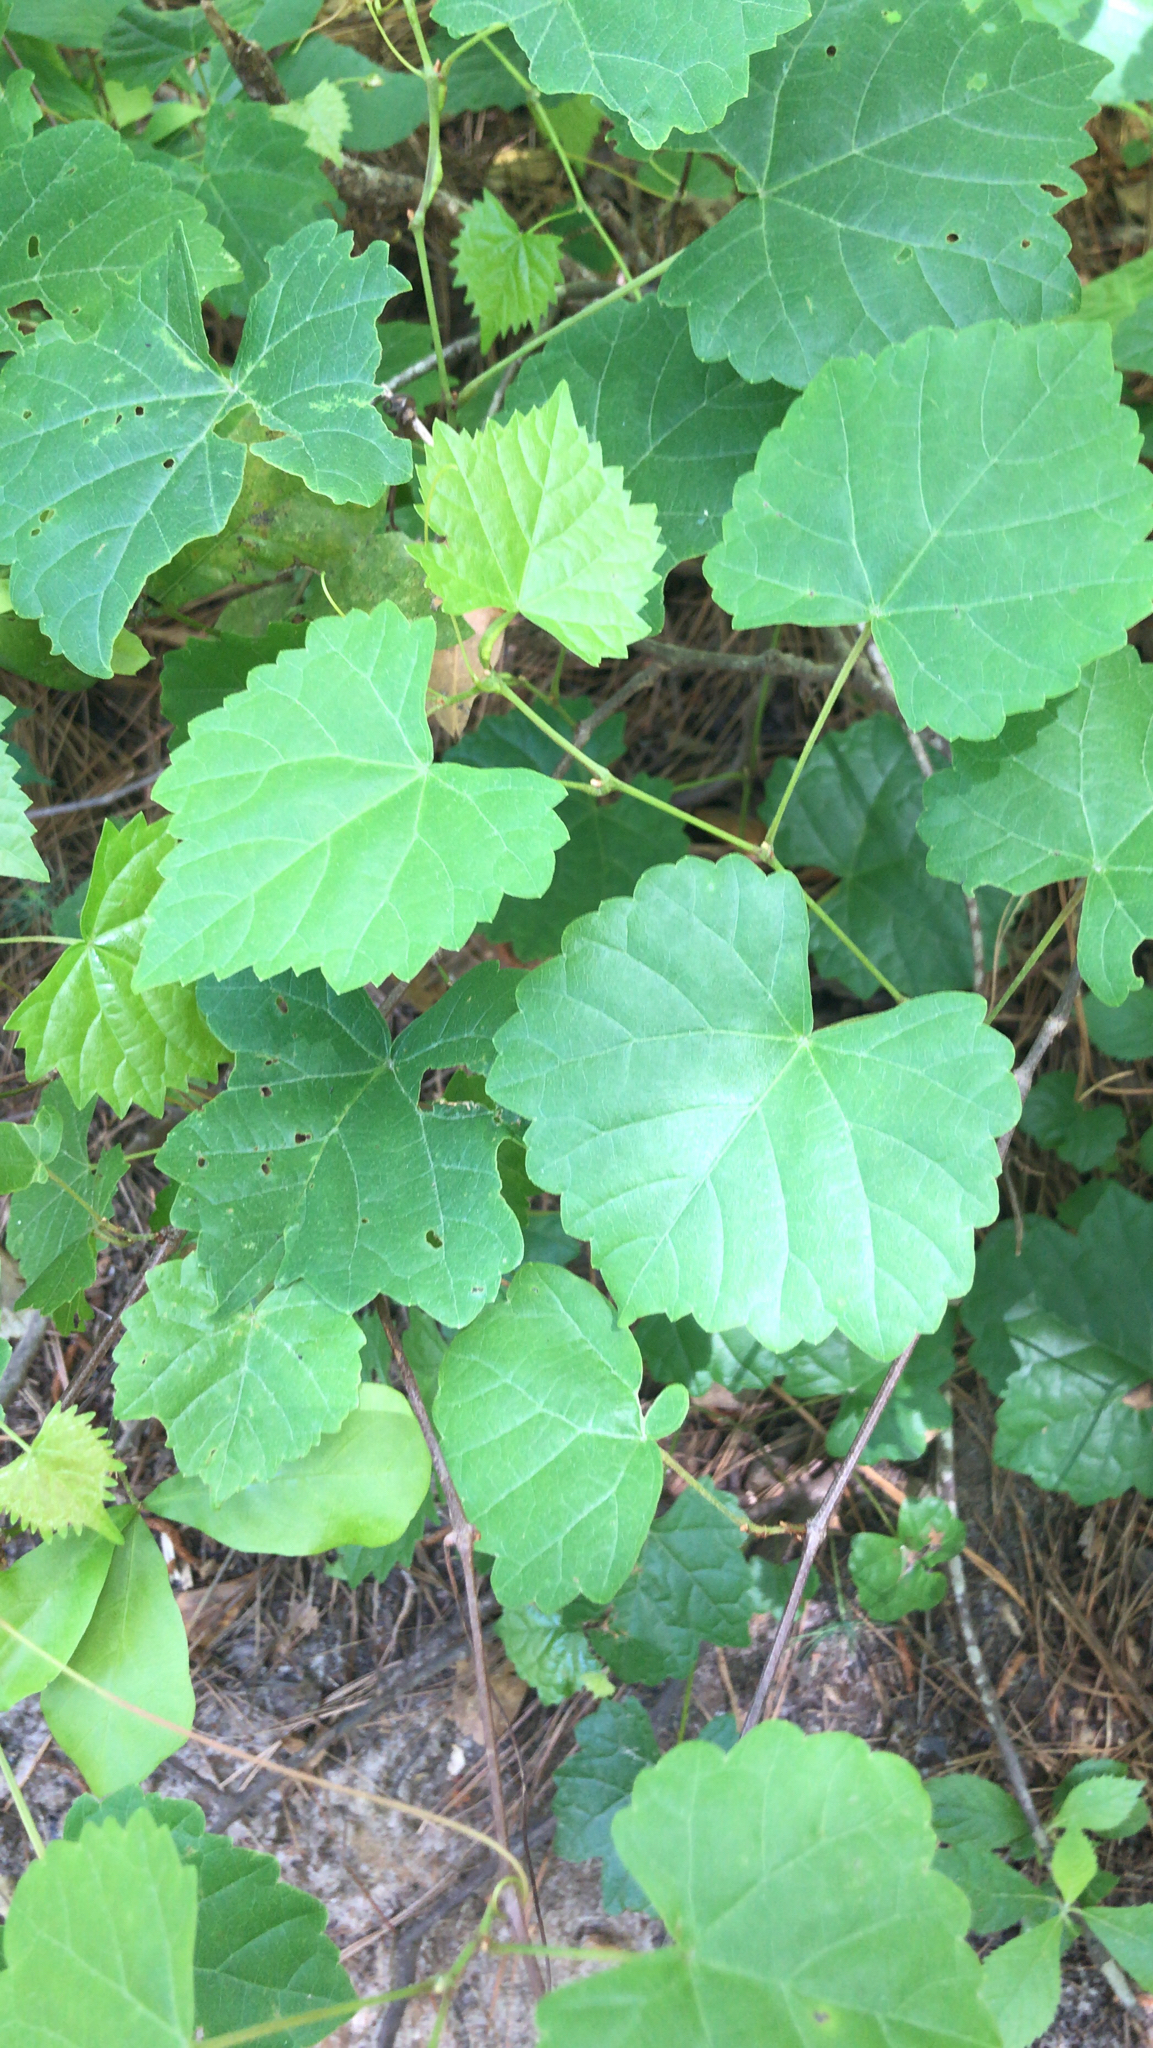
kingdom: Plantae
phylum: Tracheophyta
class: Magnoliopsida
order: Vitales
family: Vitaceae
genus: Vitis
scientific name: Vitis rotundifolia
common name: Muscadine grape
